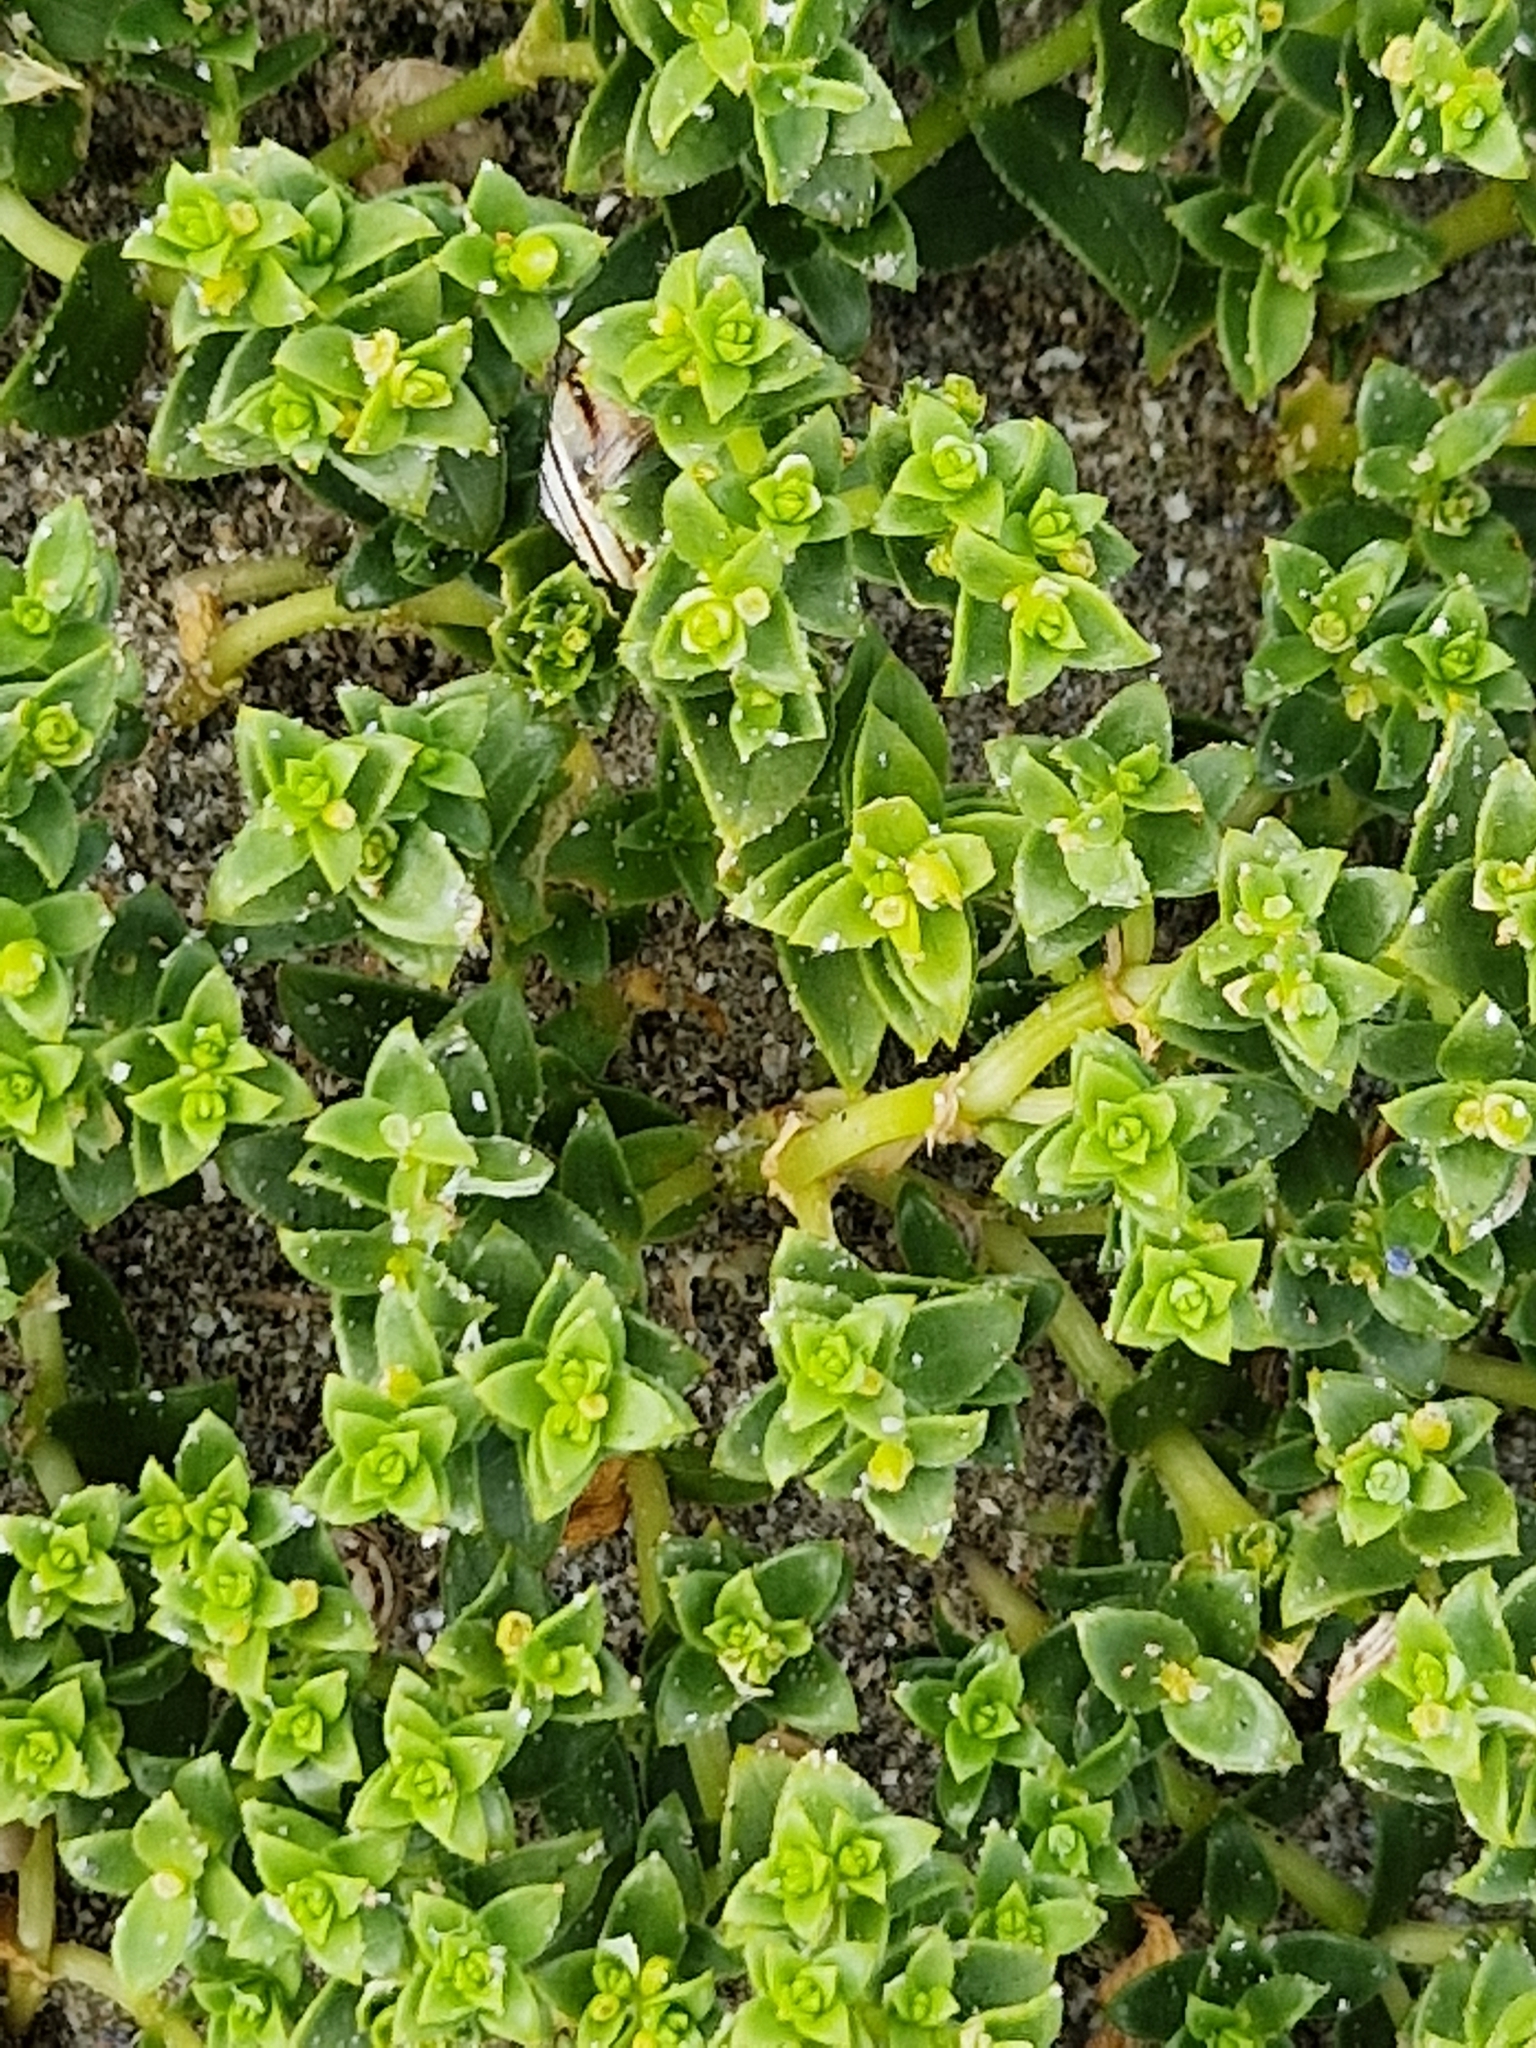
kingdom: Plantae
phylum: Tracheophyta
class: Magnoliopsida
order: Caryophyllales
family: Caryophyllaceae
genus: Honckenya
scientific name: Honckenya peploides
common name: Sea sandwort
